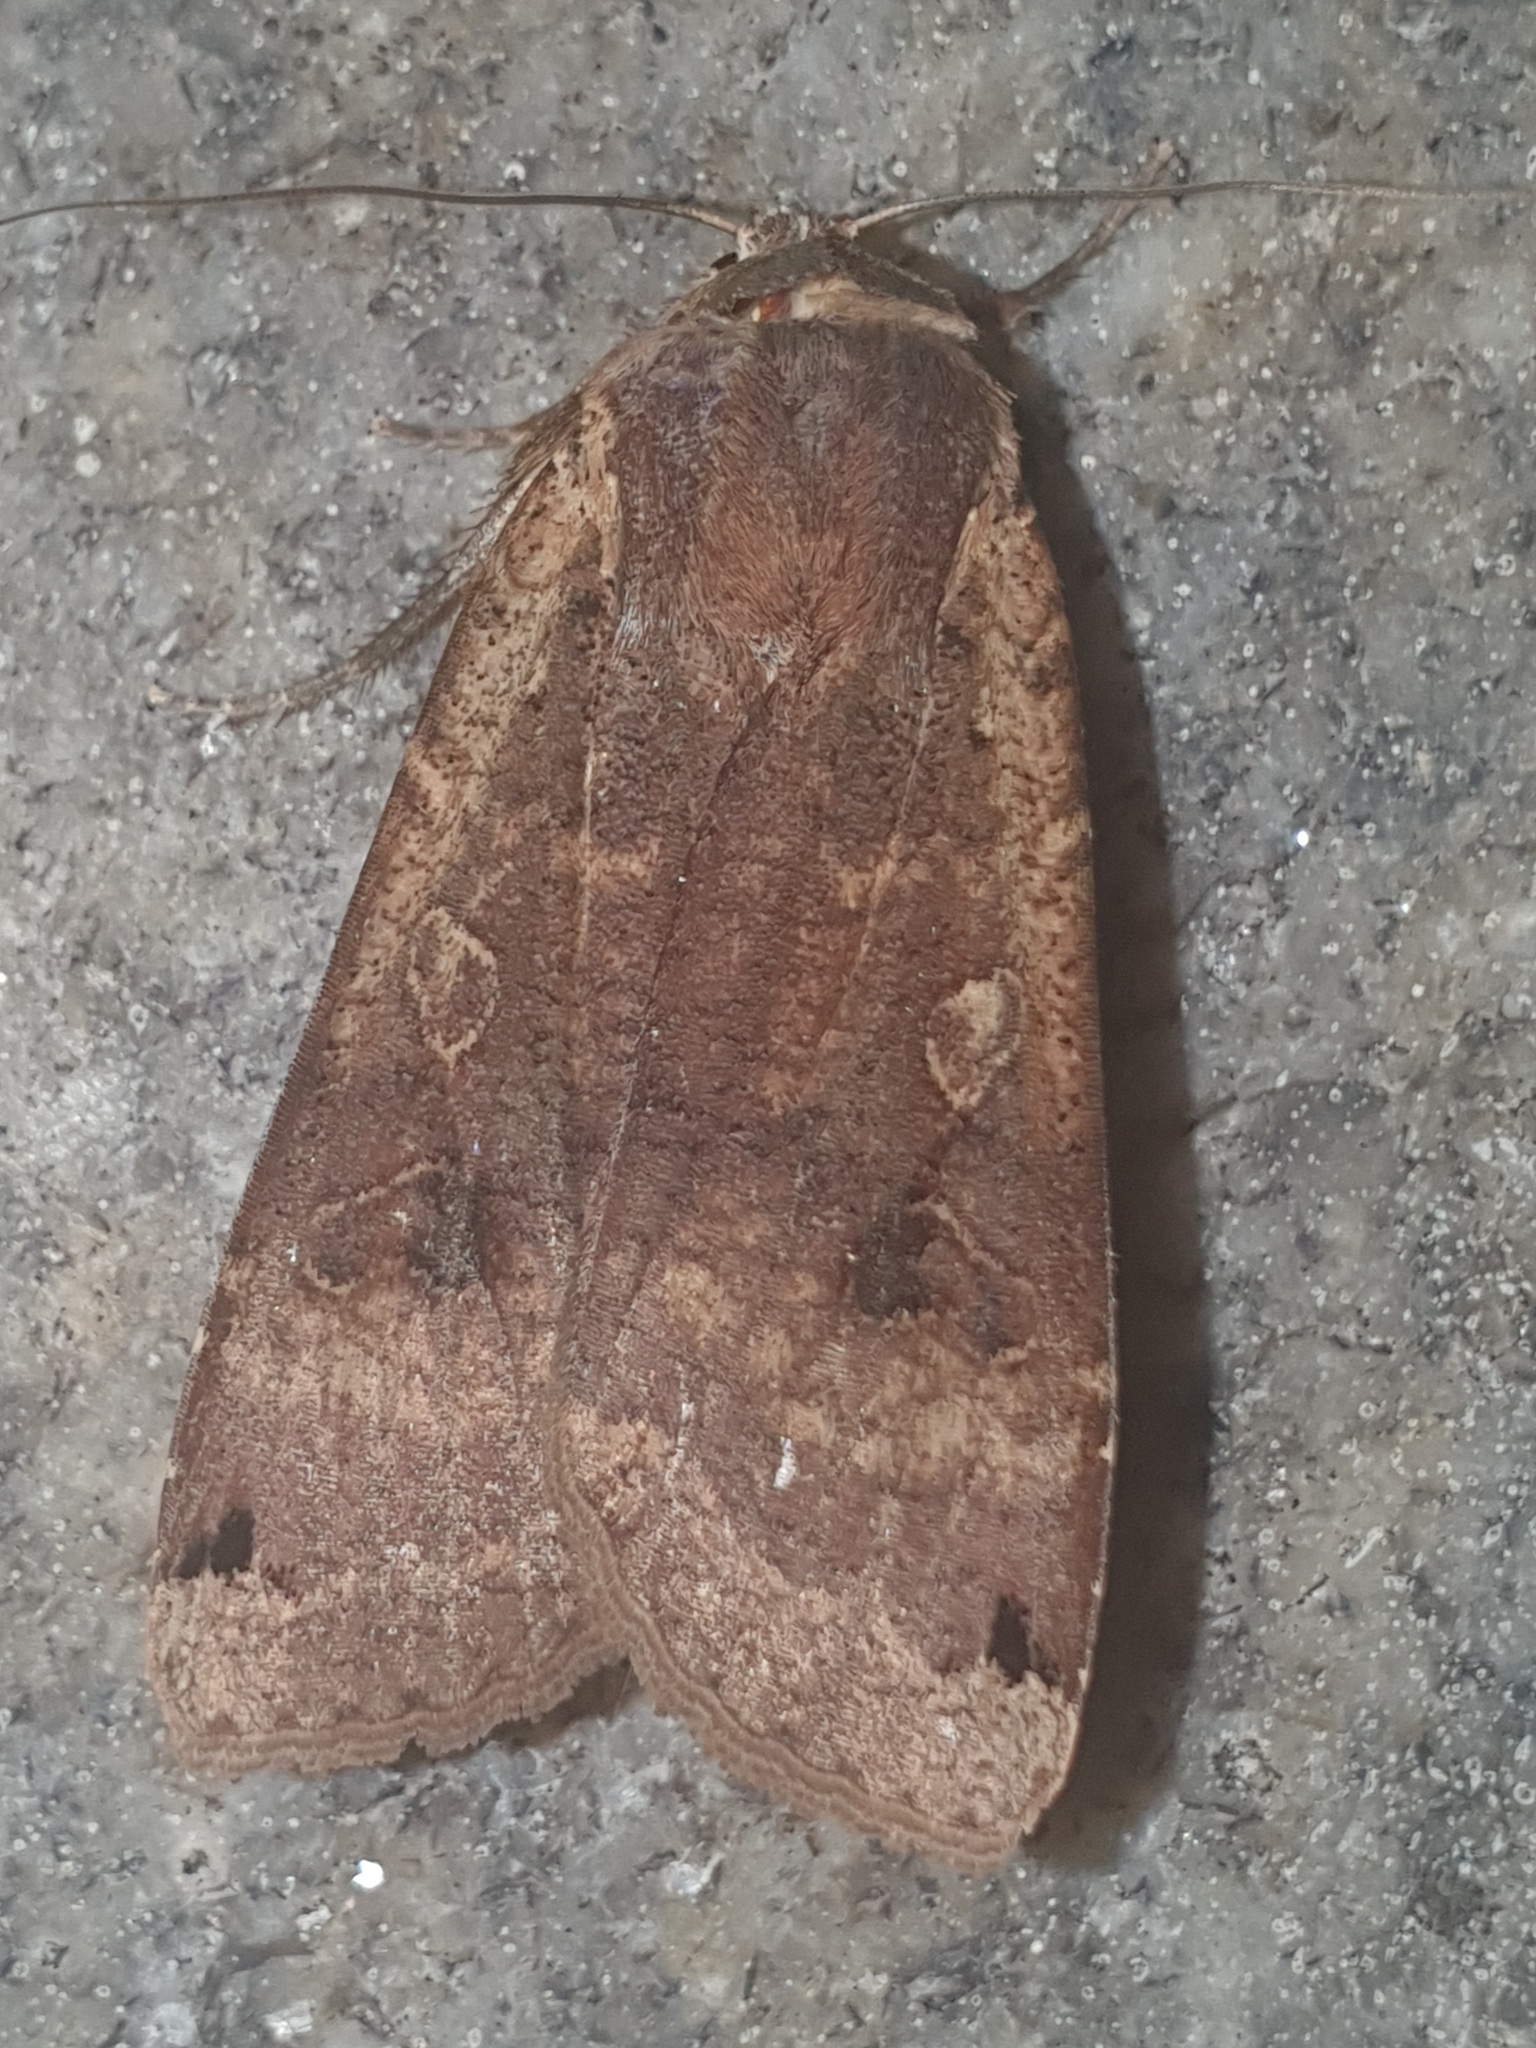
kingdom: Animalia
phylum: Arthropoda
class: Insecta
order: Lepidoptera
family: Noctuidae
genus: Noctua
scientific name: Noctua pronuba
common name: Large yellow underwing
